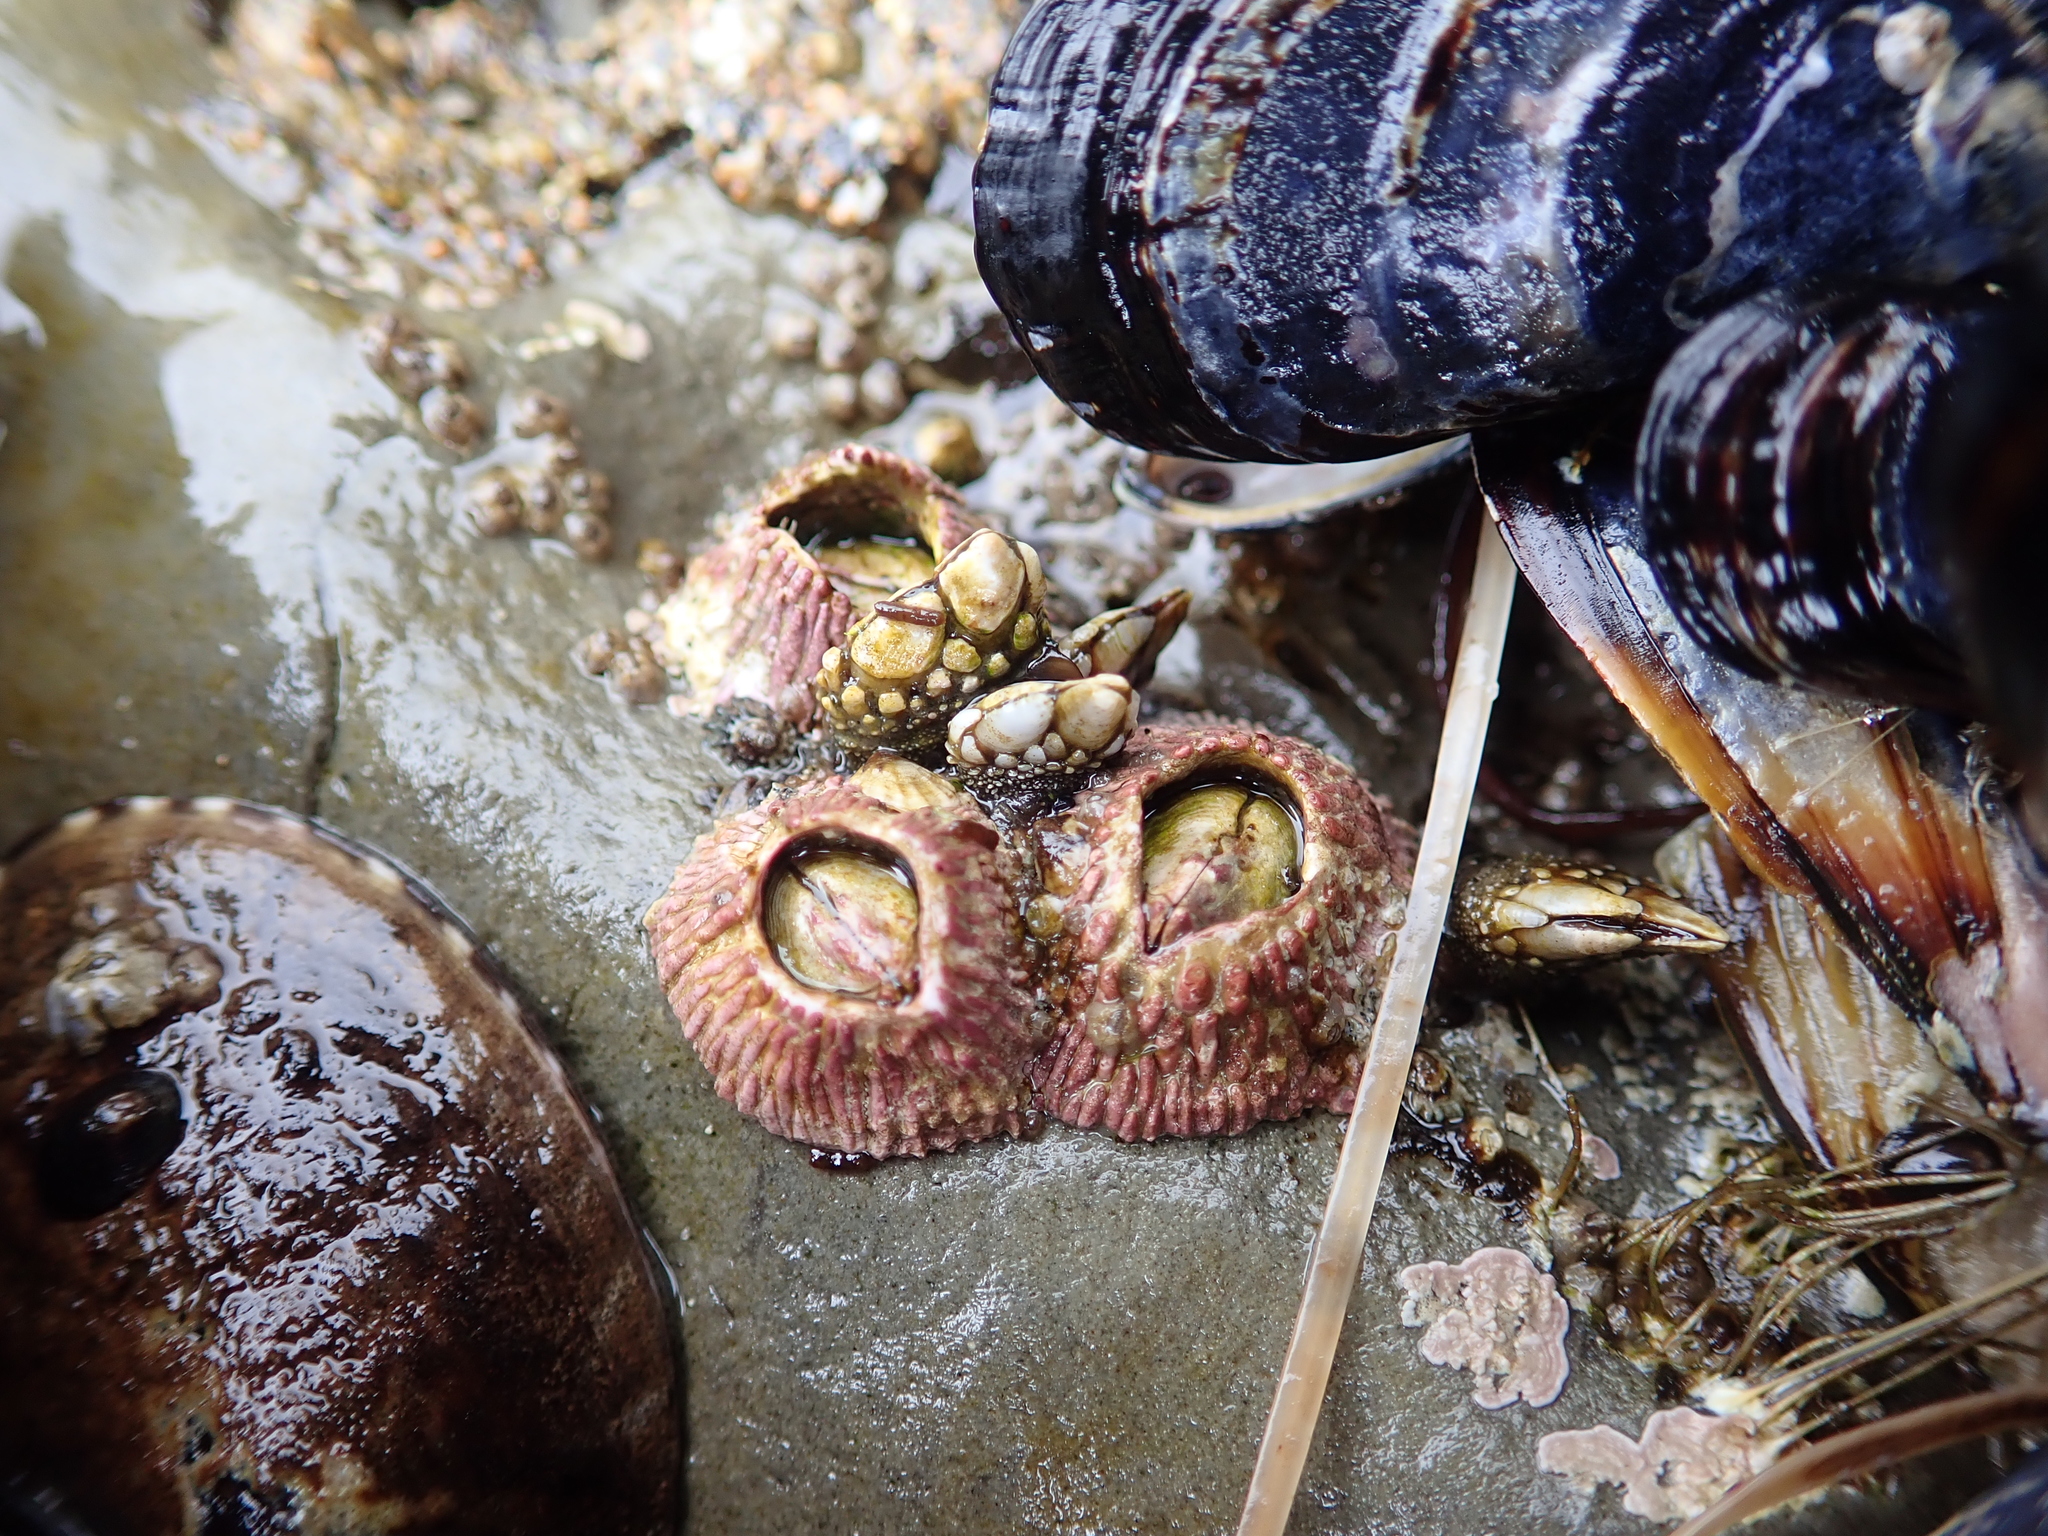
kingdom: Animalia
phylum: Arthropoda
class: Maxillopoda
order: Sessilia
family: Tetraclitidae
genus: Tetraclita
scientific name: Tetraclita rubescens
